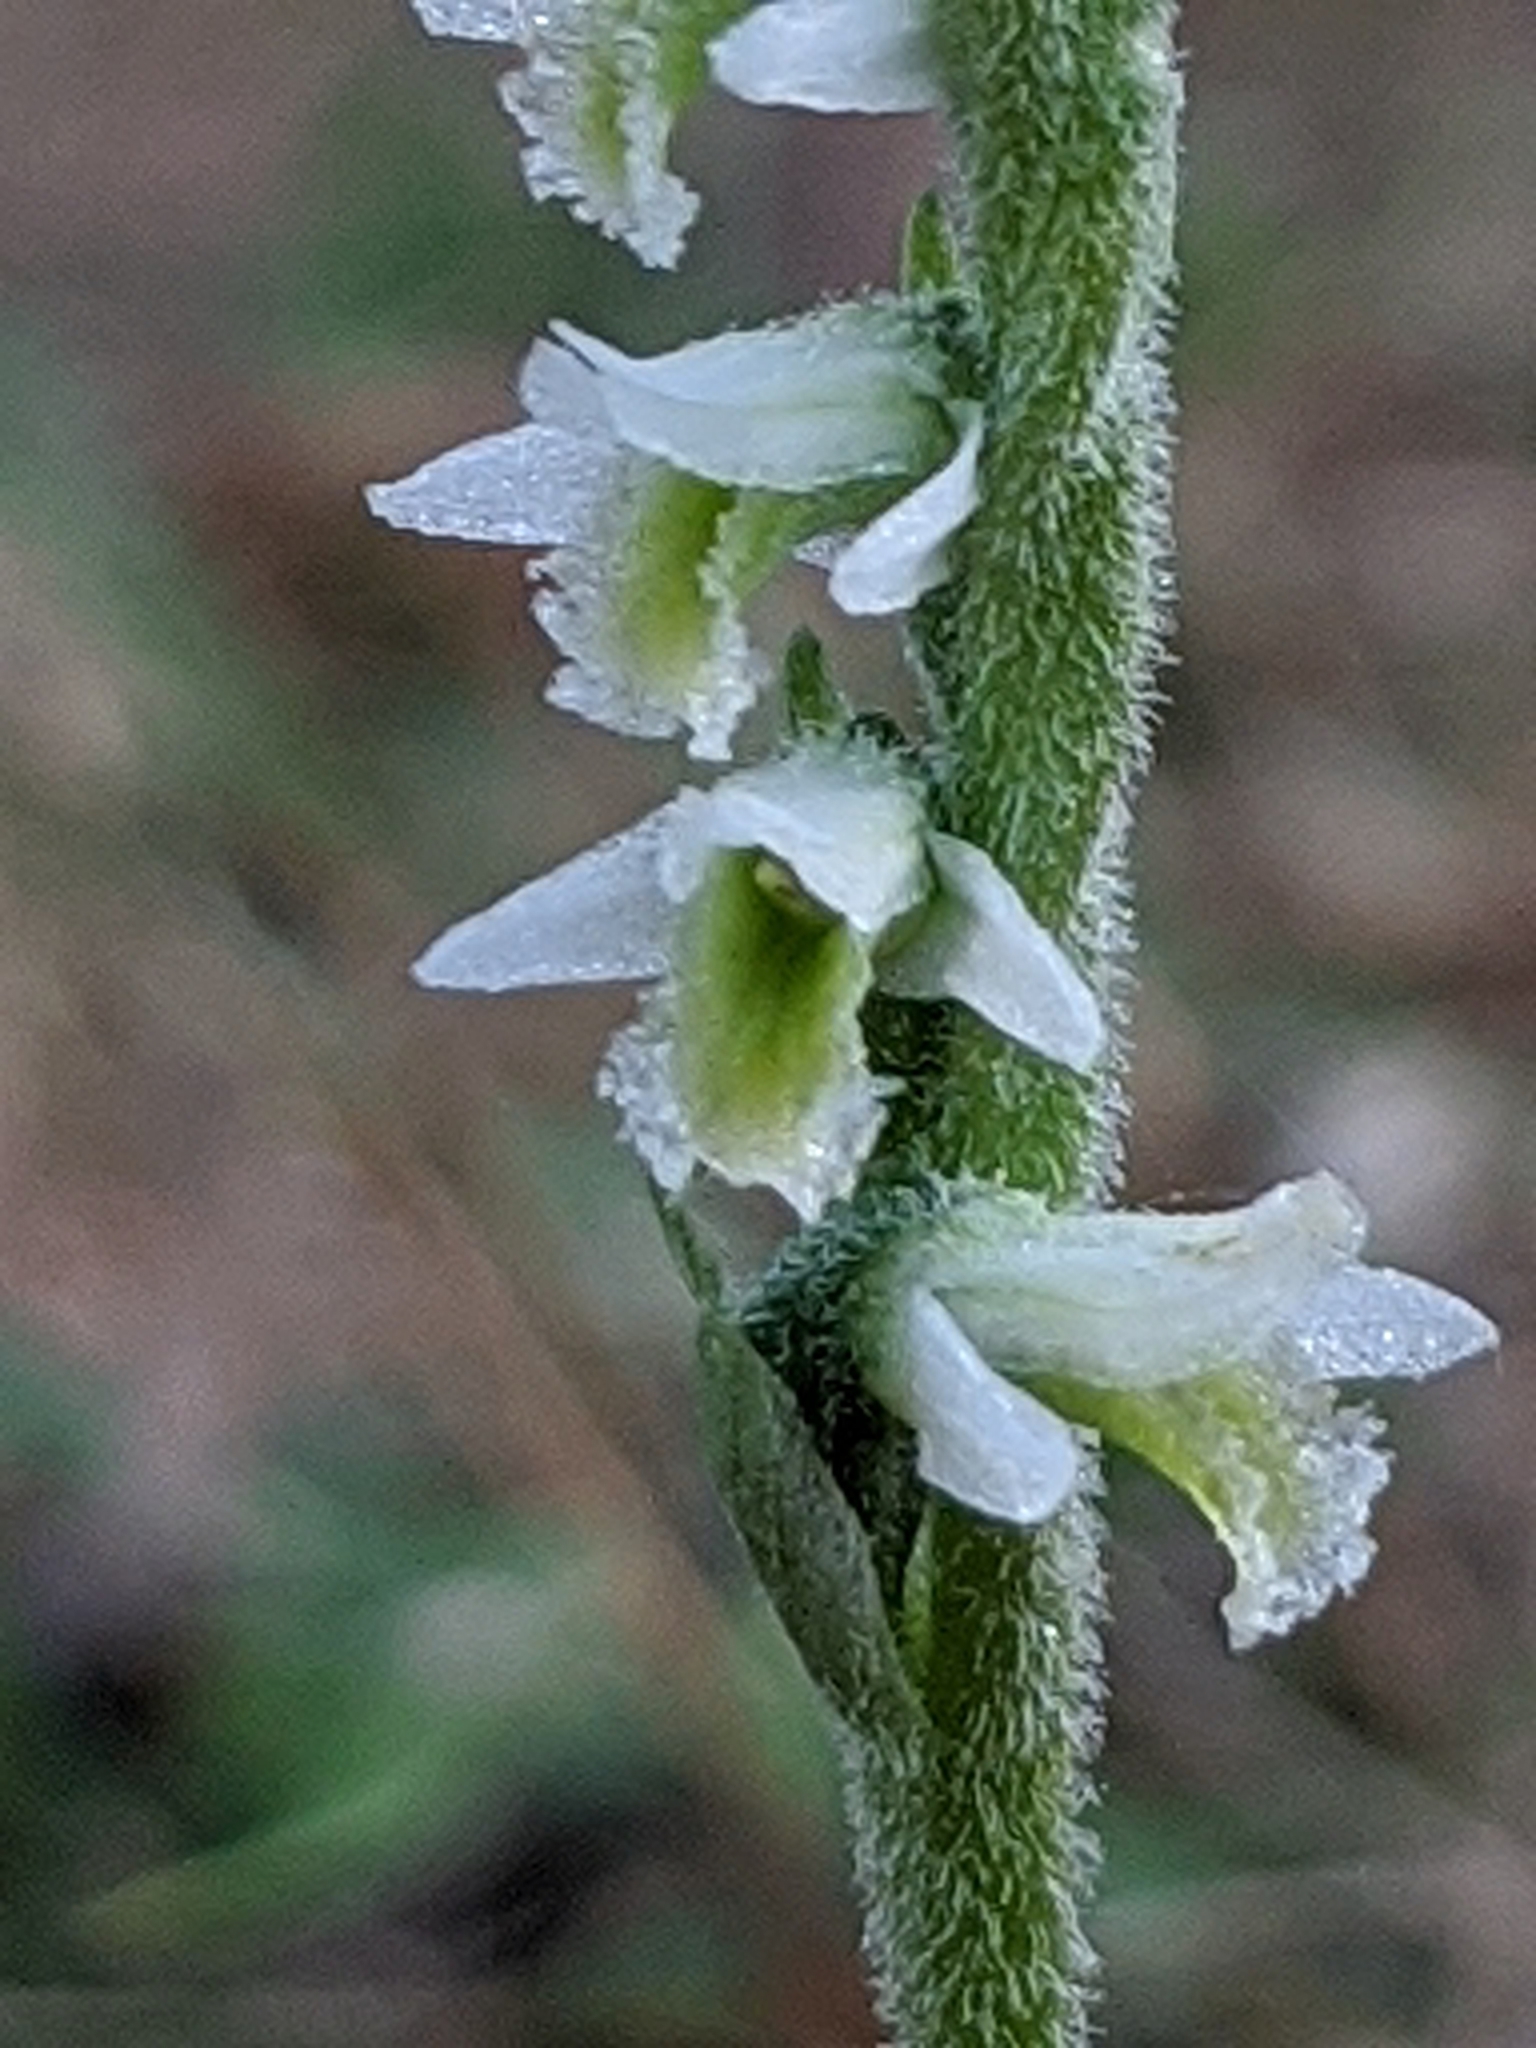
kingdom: Plantae
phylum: Tracheophyta
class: Liliopsida
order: Asparagales
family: Orchidaceae
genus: Spiranthes
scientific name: Spiranthes spiralis
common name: Autumn lady's-tresses
